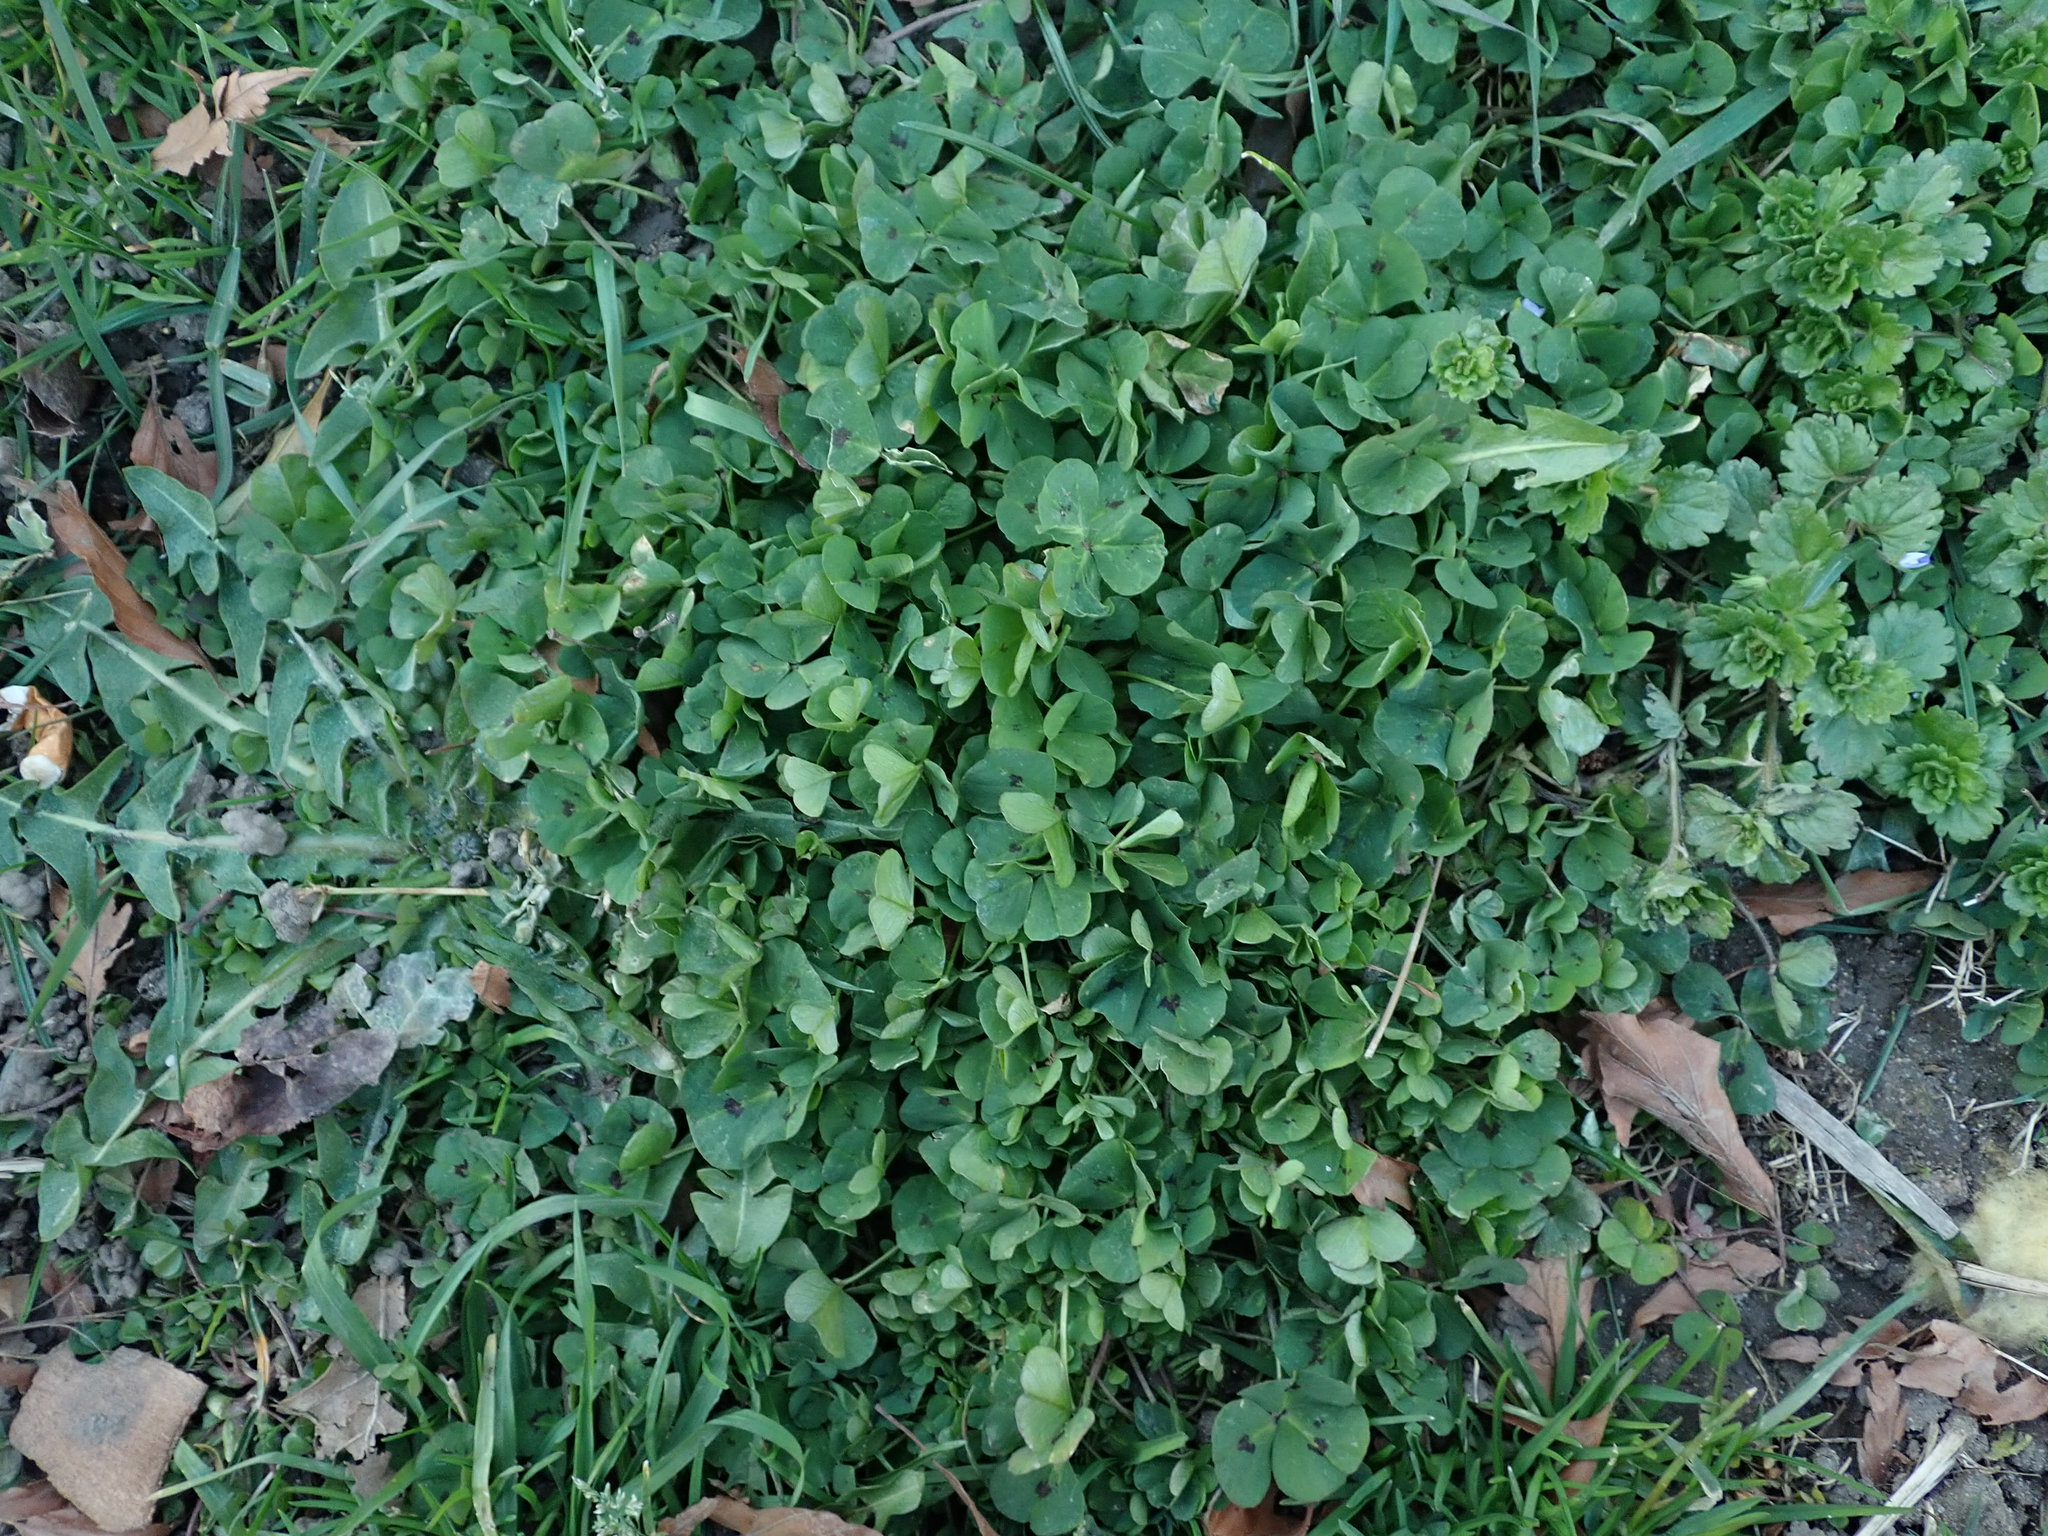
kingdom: Plantae
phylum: Tracheophyta
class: Magnoliopsida
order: Fabales
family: Fabaceae
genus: Medicago
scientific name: Medicago arabica
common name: Spotted medick
